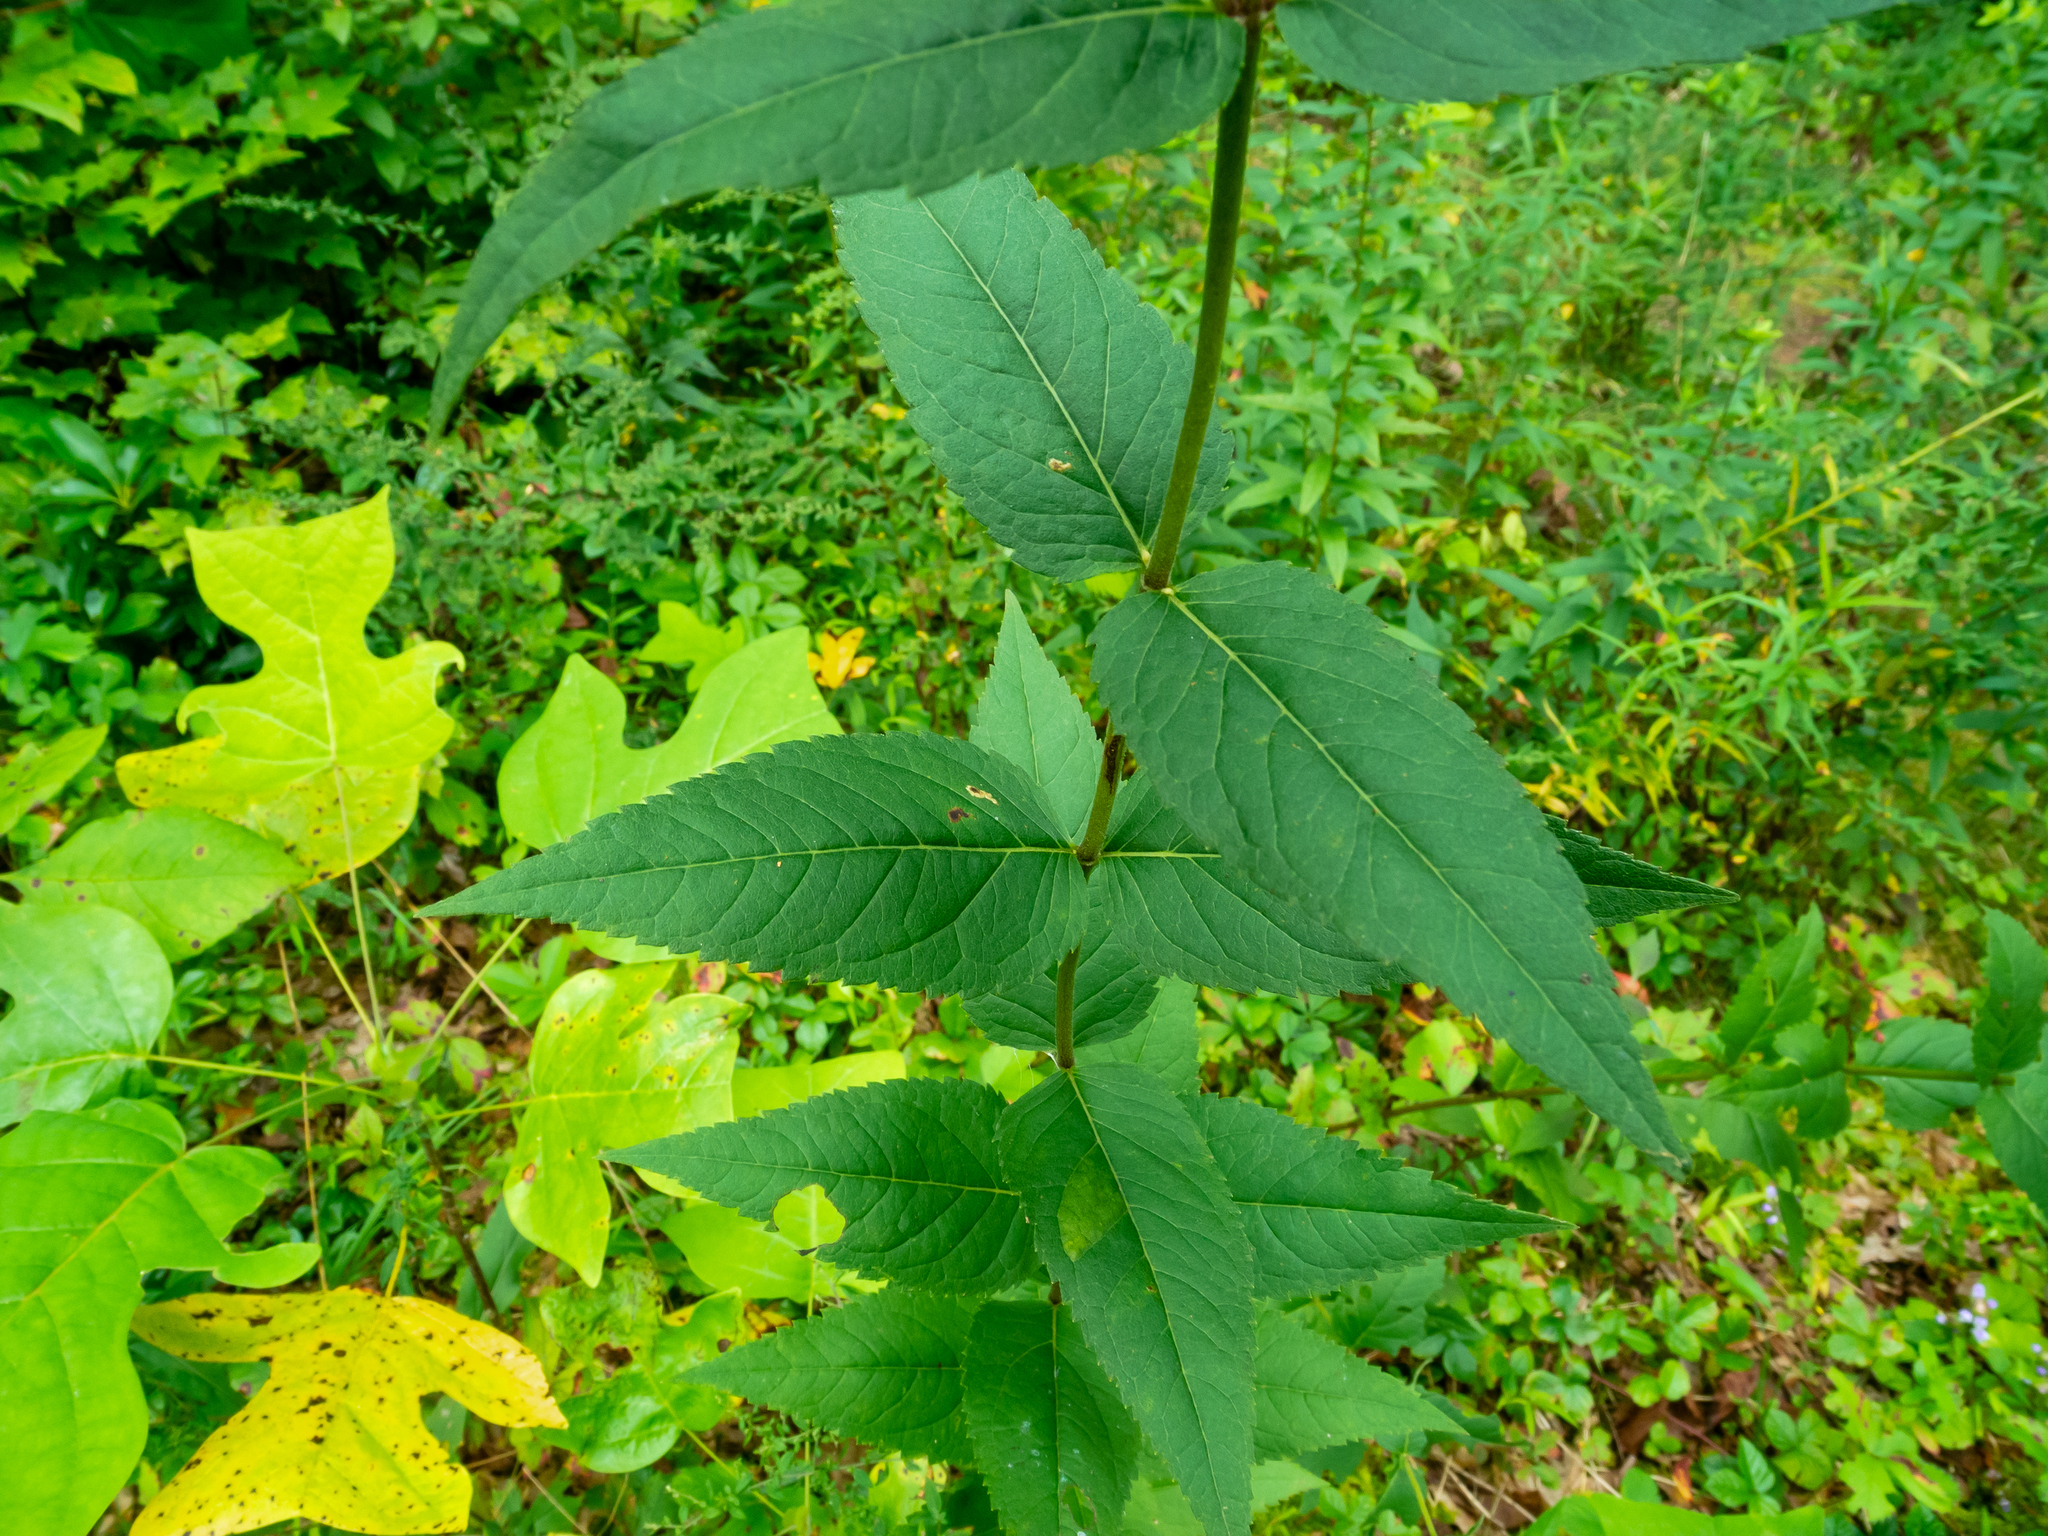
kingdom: Plantae
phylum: Tracheophyta
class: Magnoliopsida
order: Asterales
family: Asteraceae
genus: Eupatorium
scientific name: Eupatorium godfreyanum
